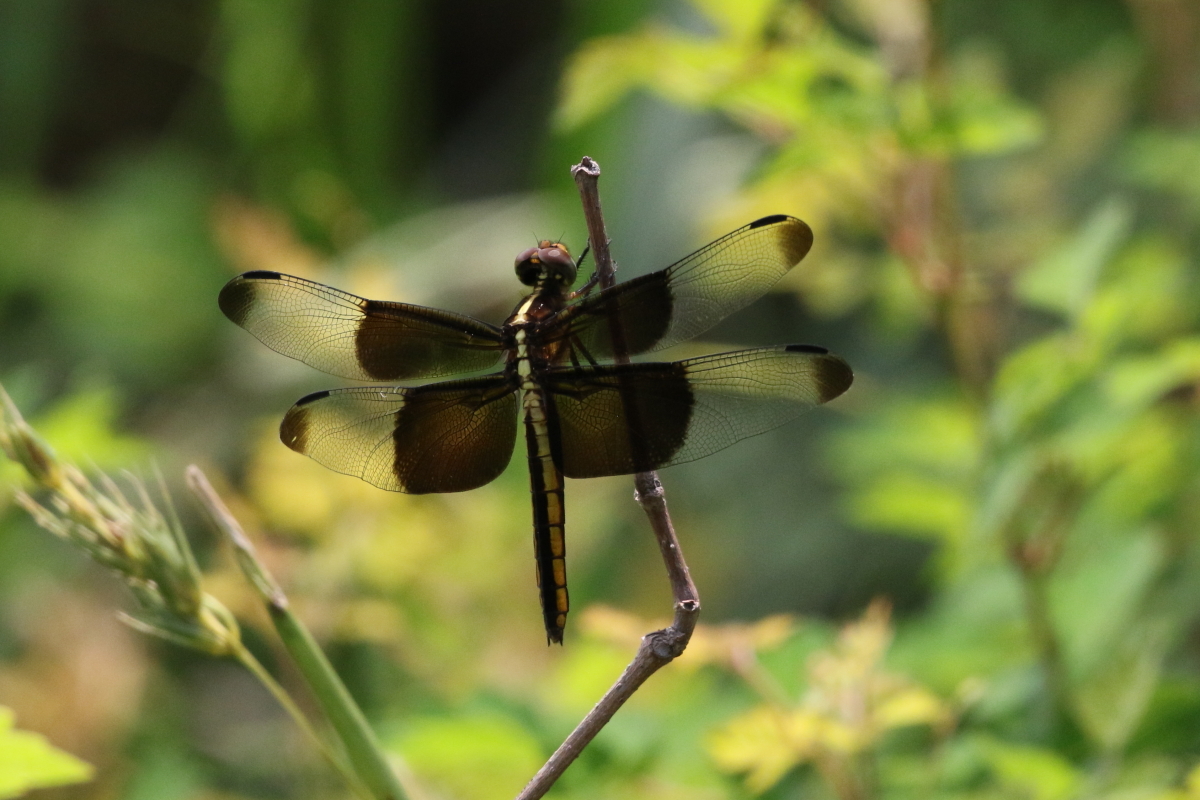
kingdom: Animalia
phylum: Arthropoda
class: Insecta
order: Odonata
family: Libellulidae
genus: Libellula
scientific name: Libellula luctuosa
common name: Widow skimmer
